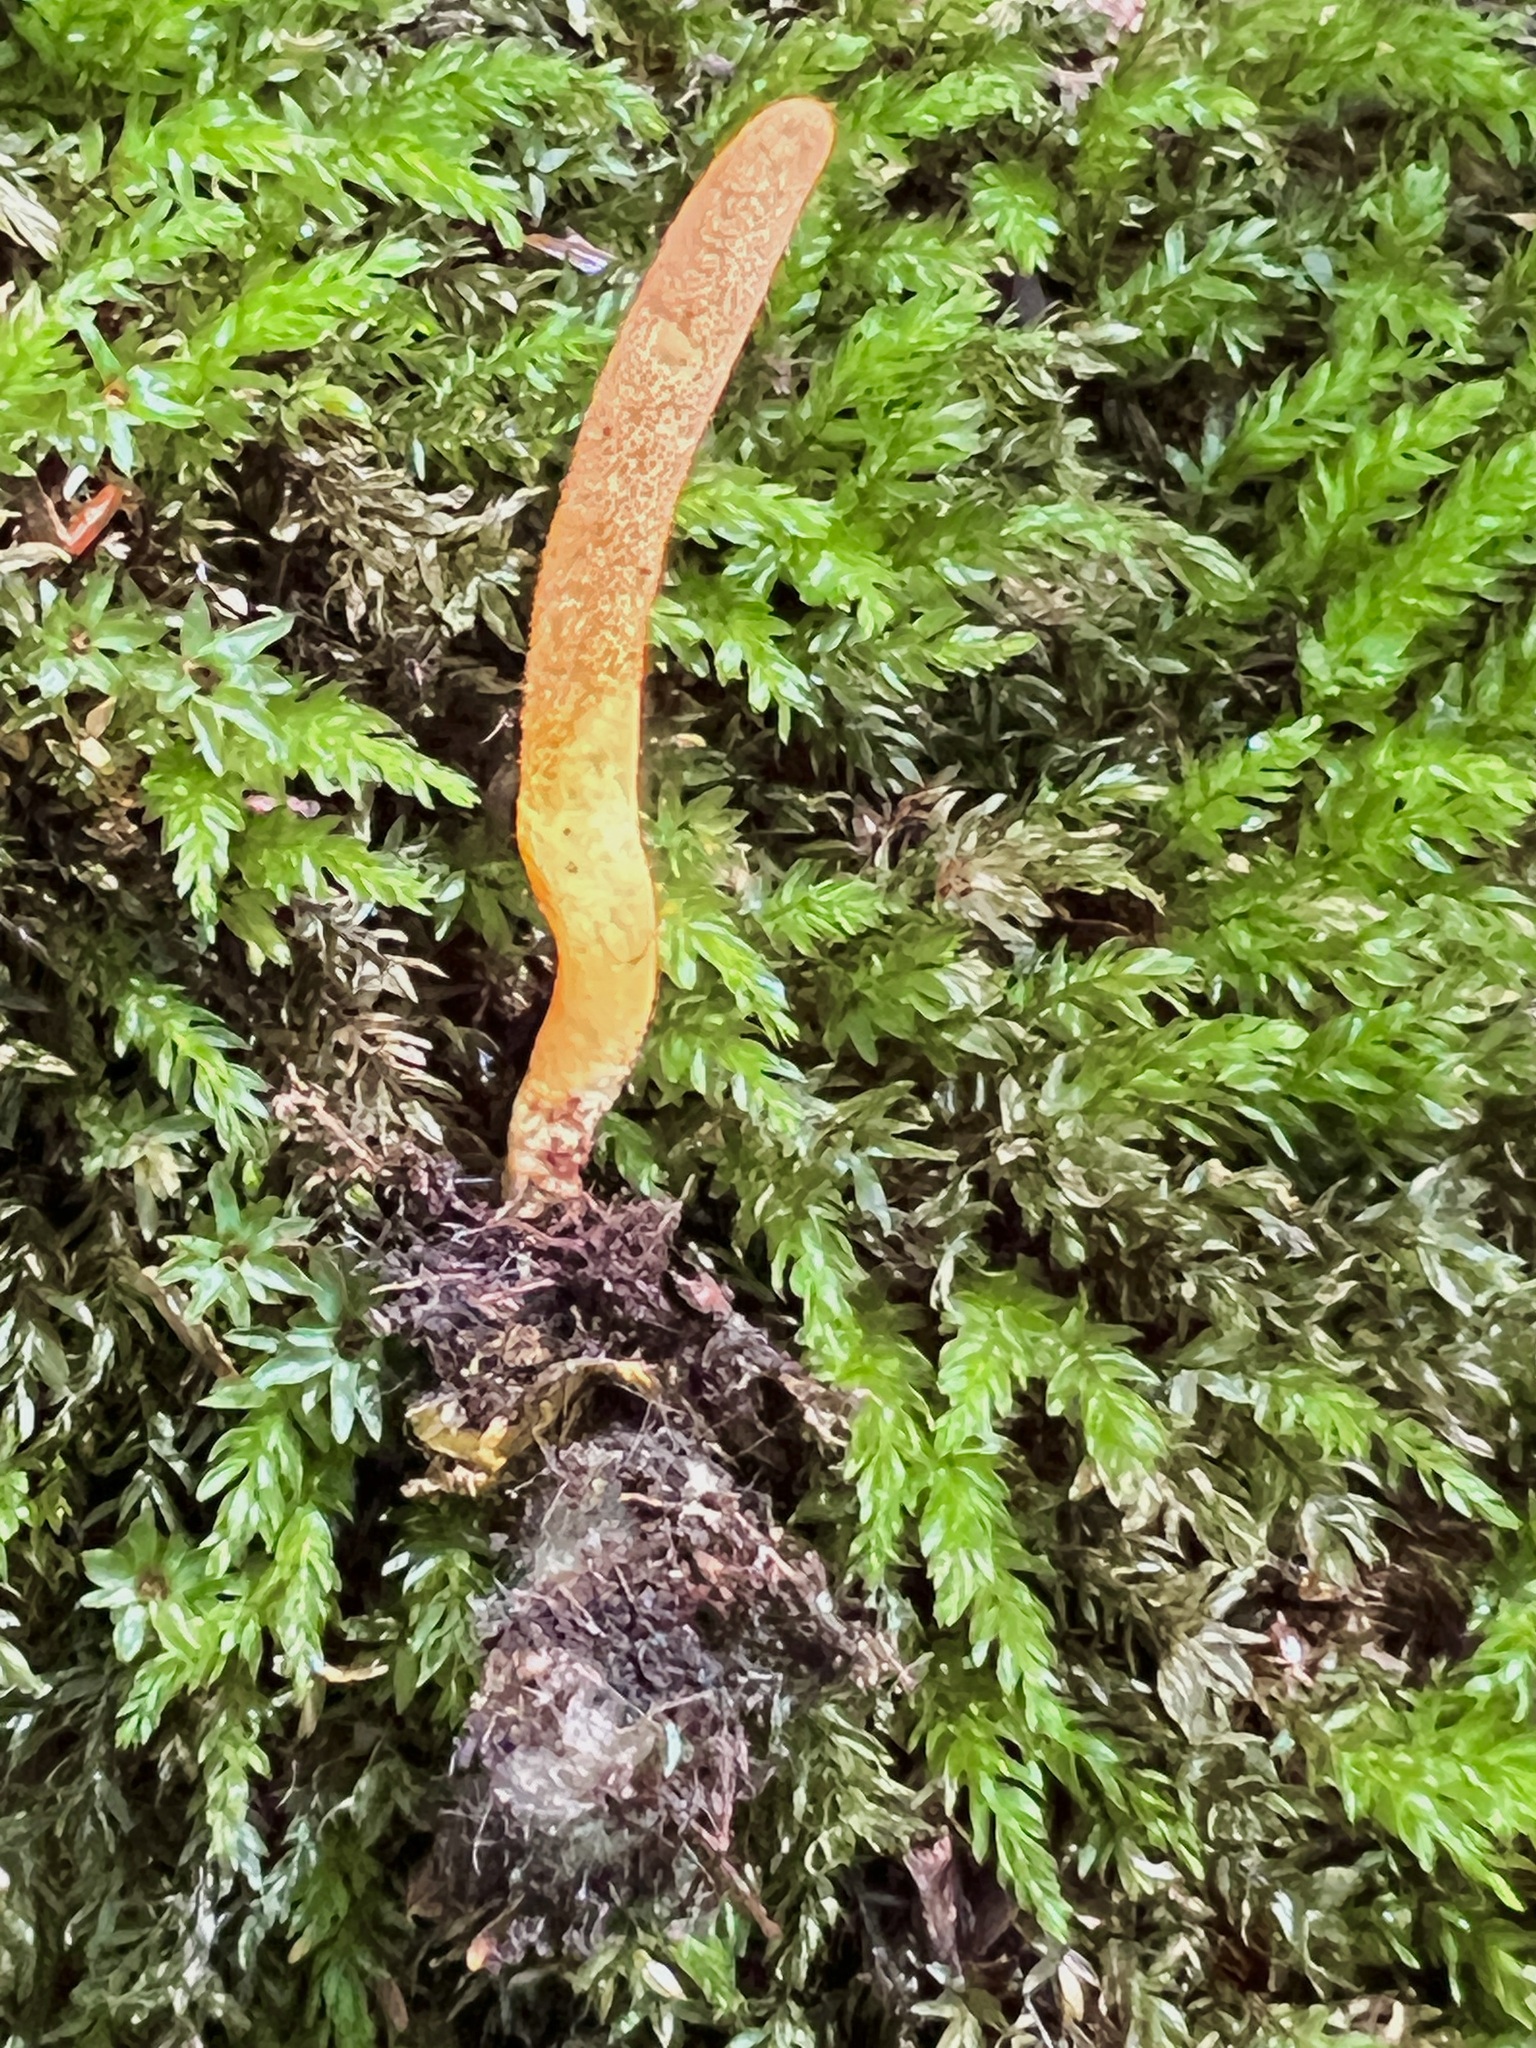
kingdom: Fungi
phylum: Ascomycota
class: Sordariomycetes
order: Hypocreales
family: Cordycipitaceae
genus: Cordyceps
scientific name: Cordyceps militaris
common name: Scarlet caterpillar fungus
